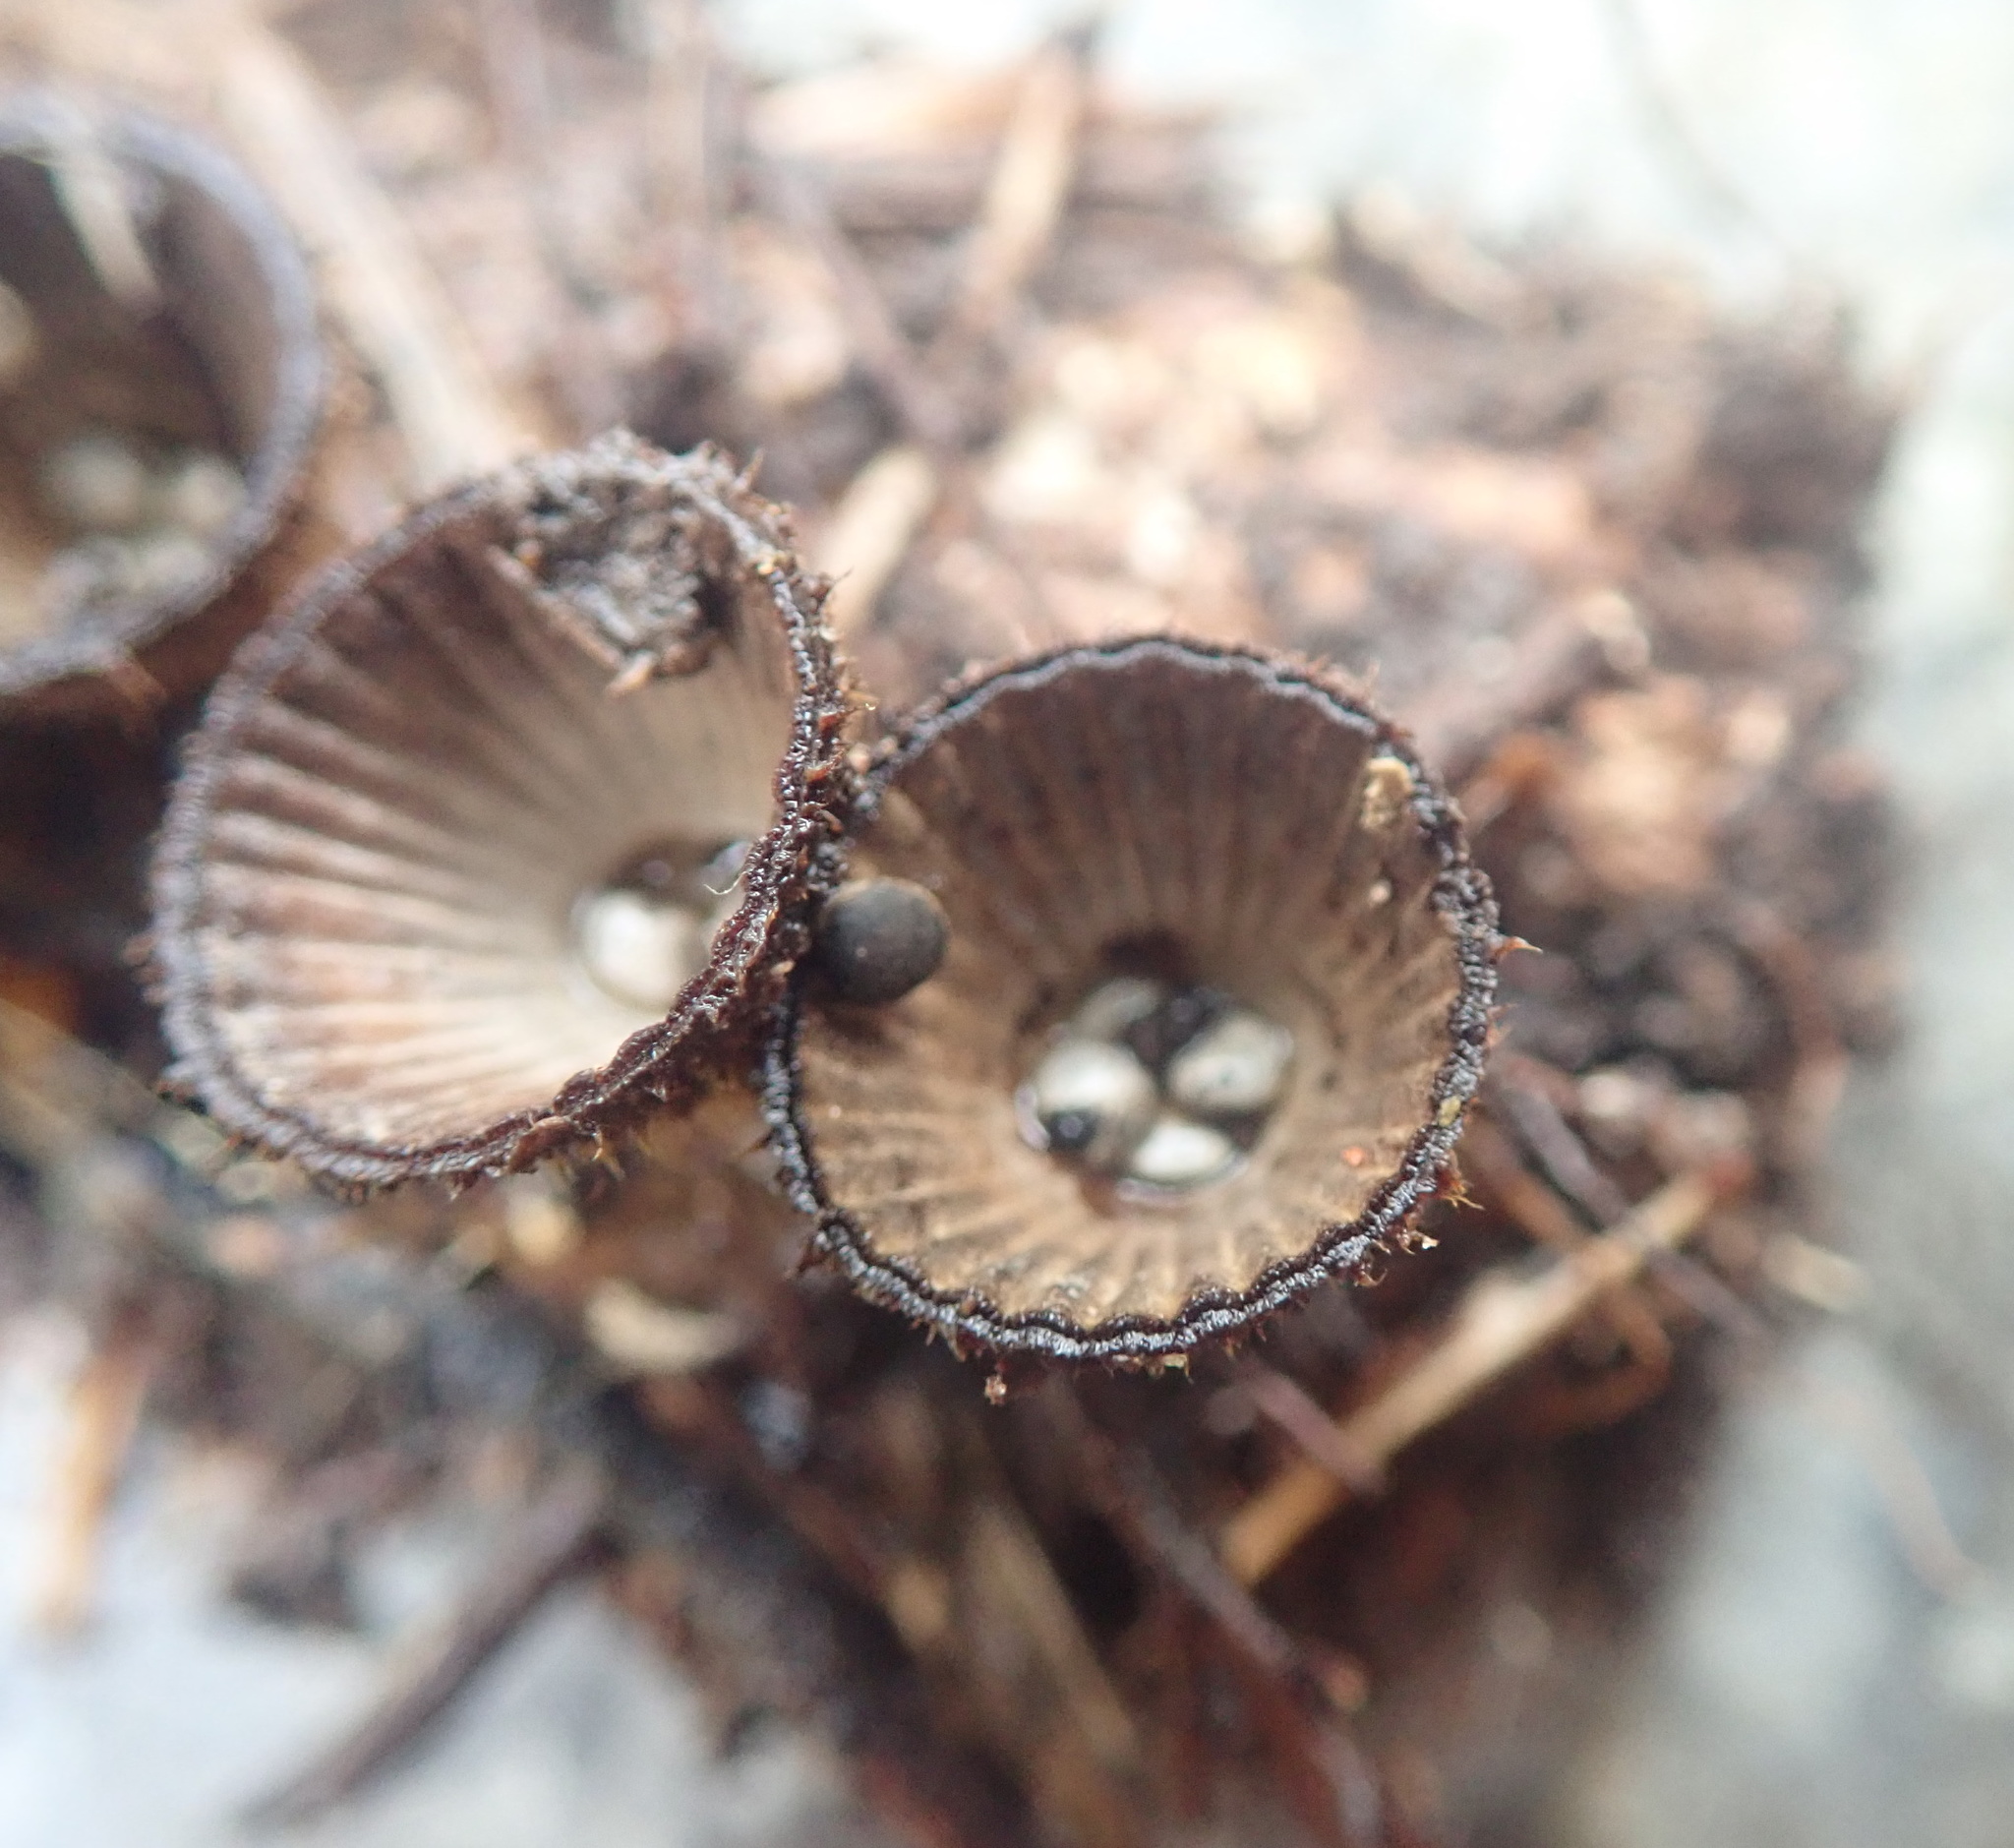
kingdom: Fungi
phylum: Basidiomycota
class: Agaricomycetes
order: Agaricales
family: Agaricaceae
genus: Cyathus
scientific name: Cyathus striatus
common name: Fluted bird's nest
